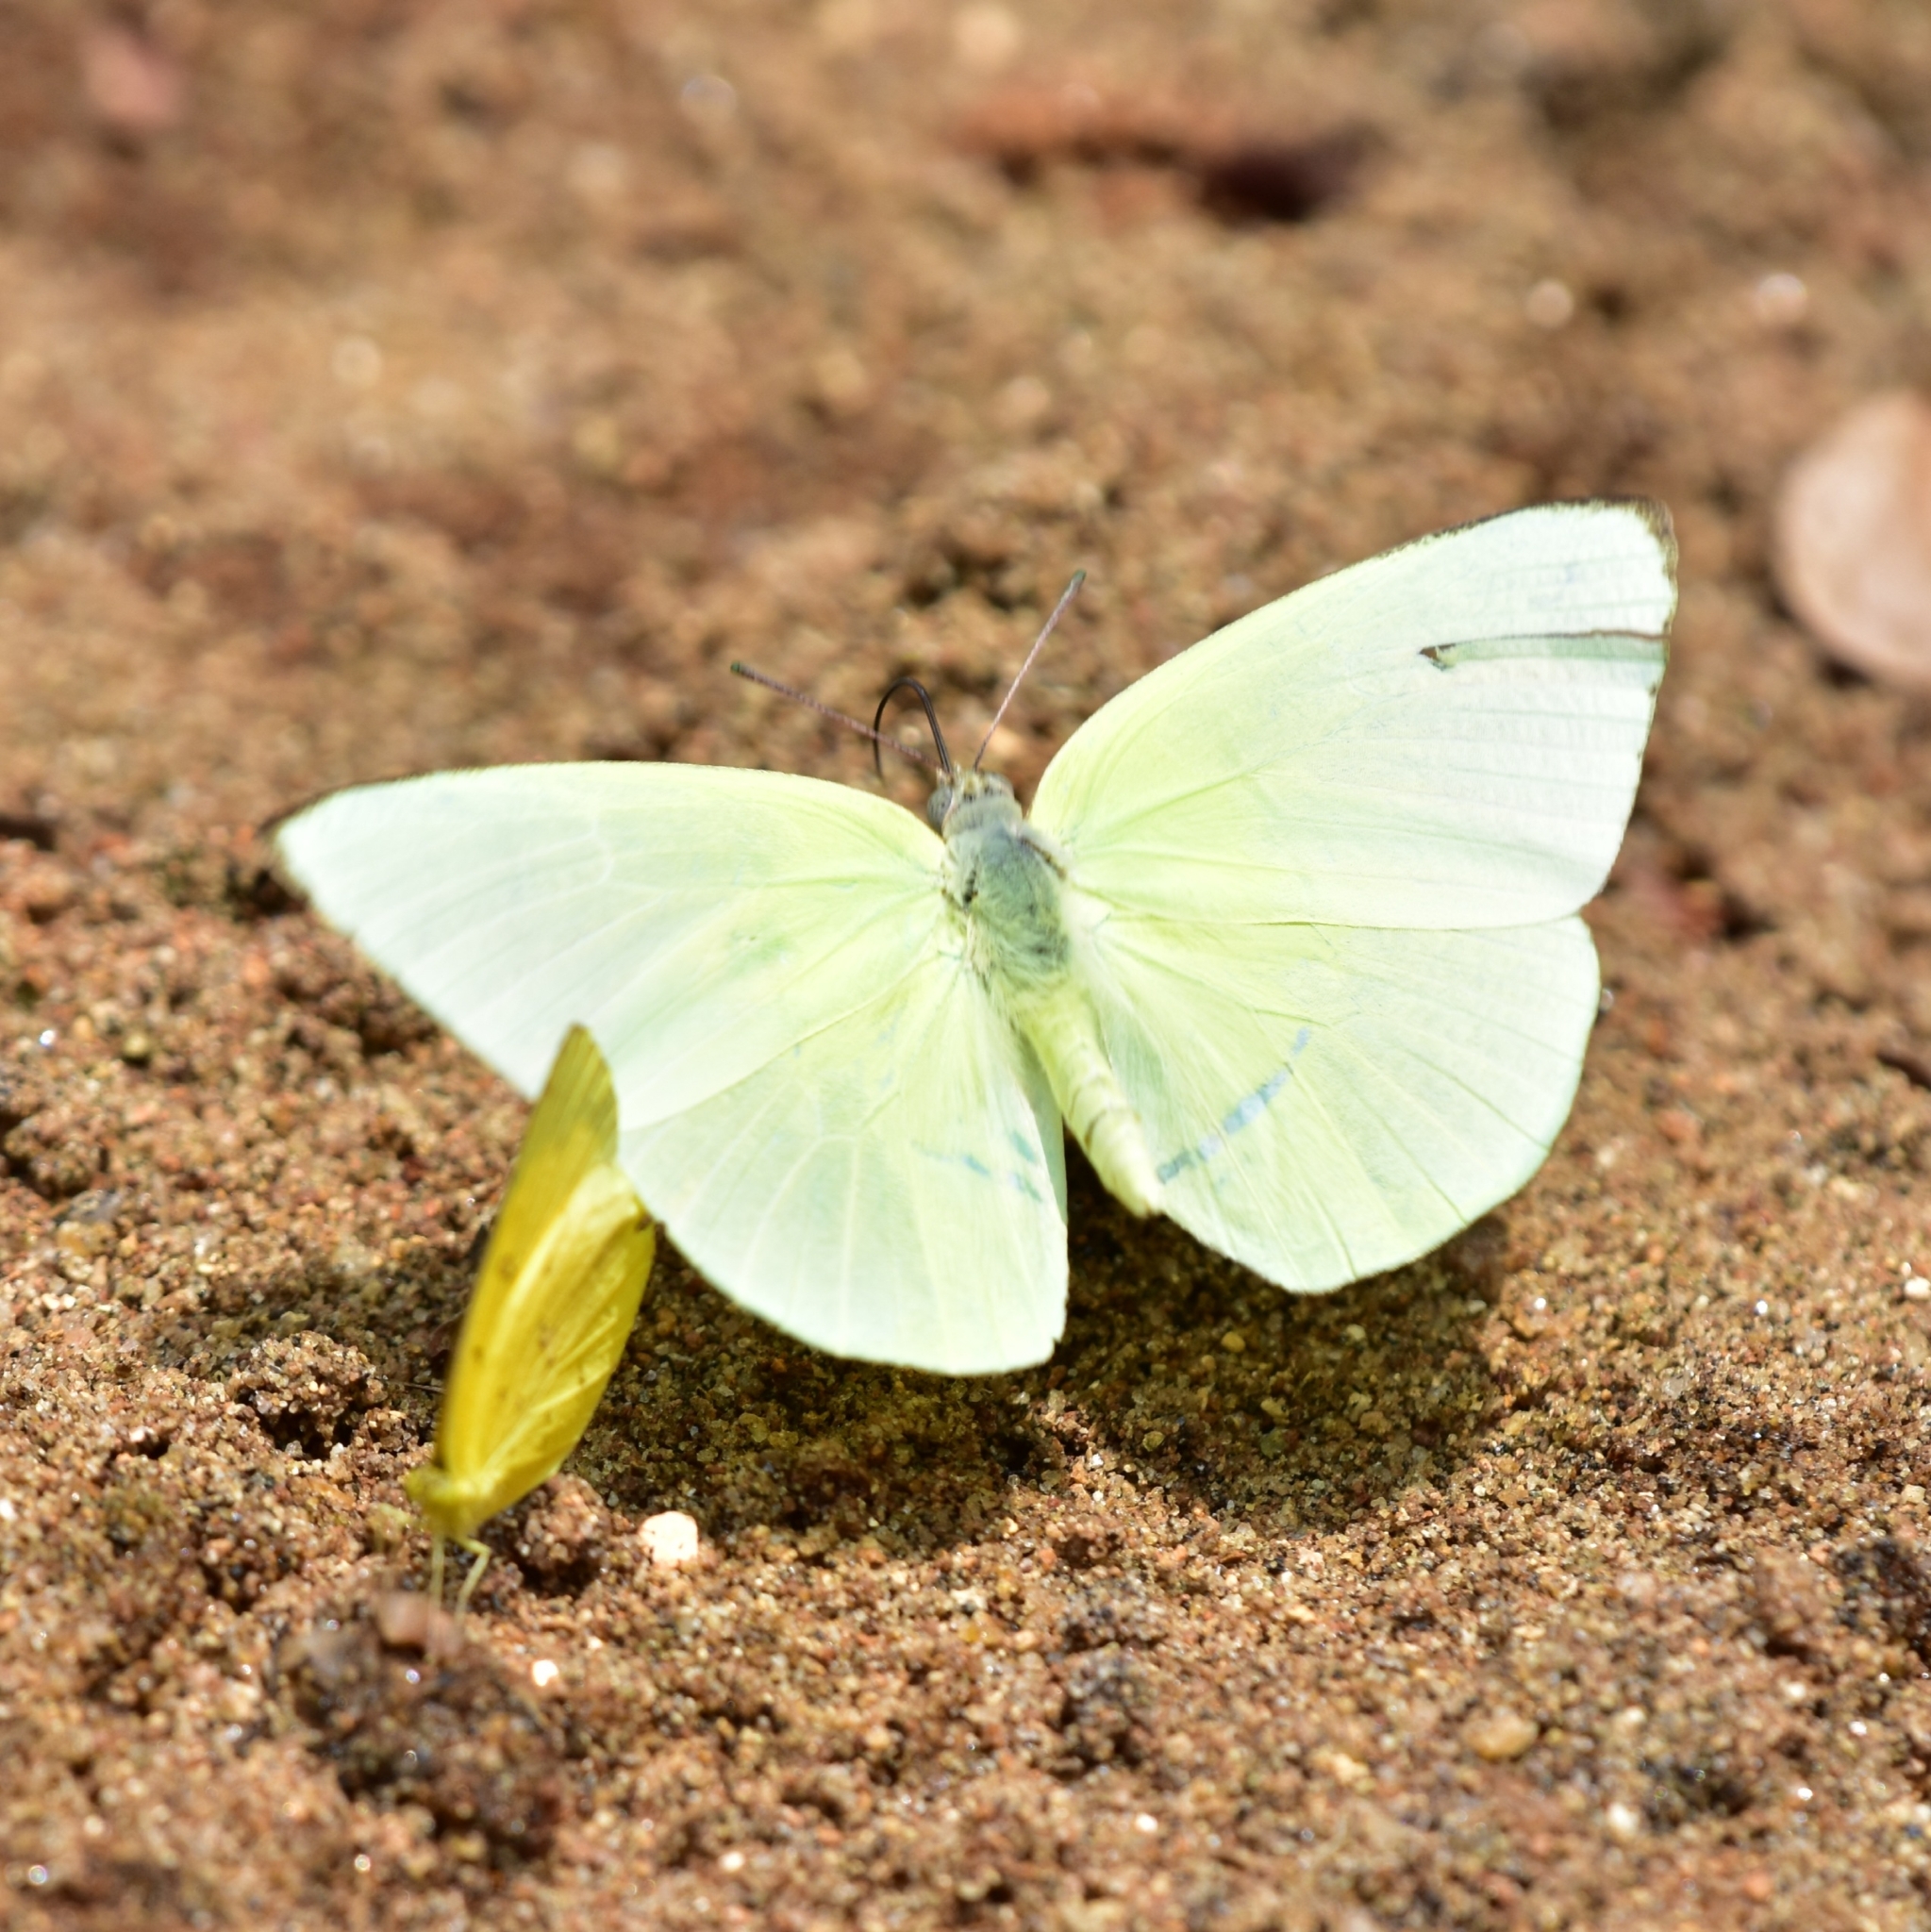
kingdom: Animalia
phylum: Arthropoda
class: Insecta
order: Lepidoptera
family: Pieridae
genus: Catopsilia
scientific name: Catopsilia pomona
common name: Common emigrant
